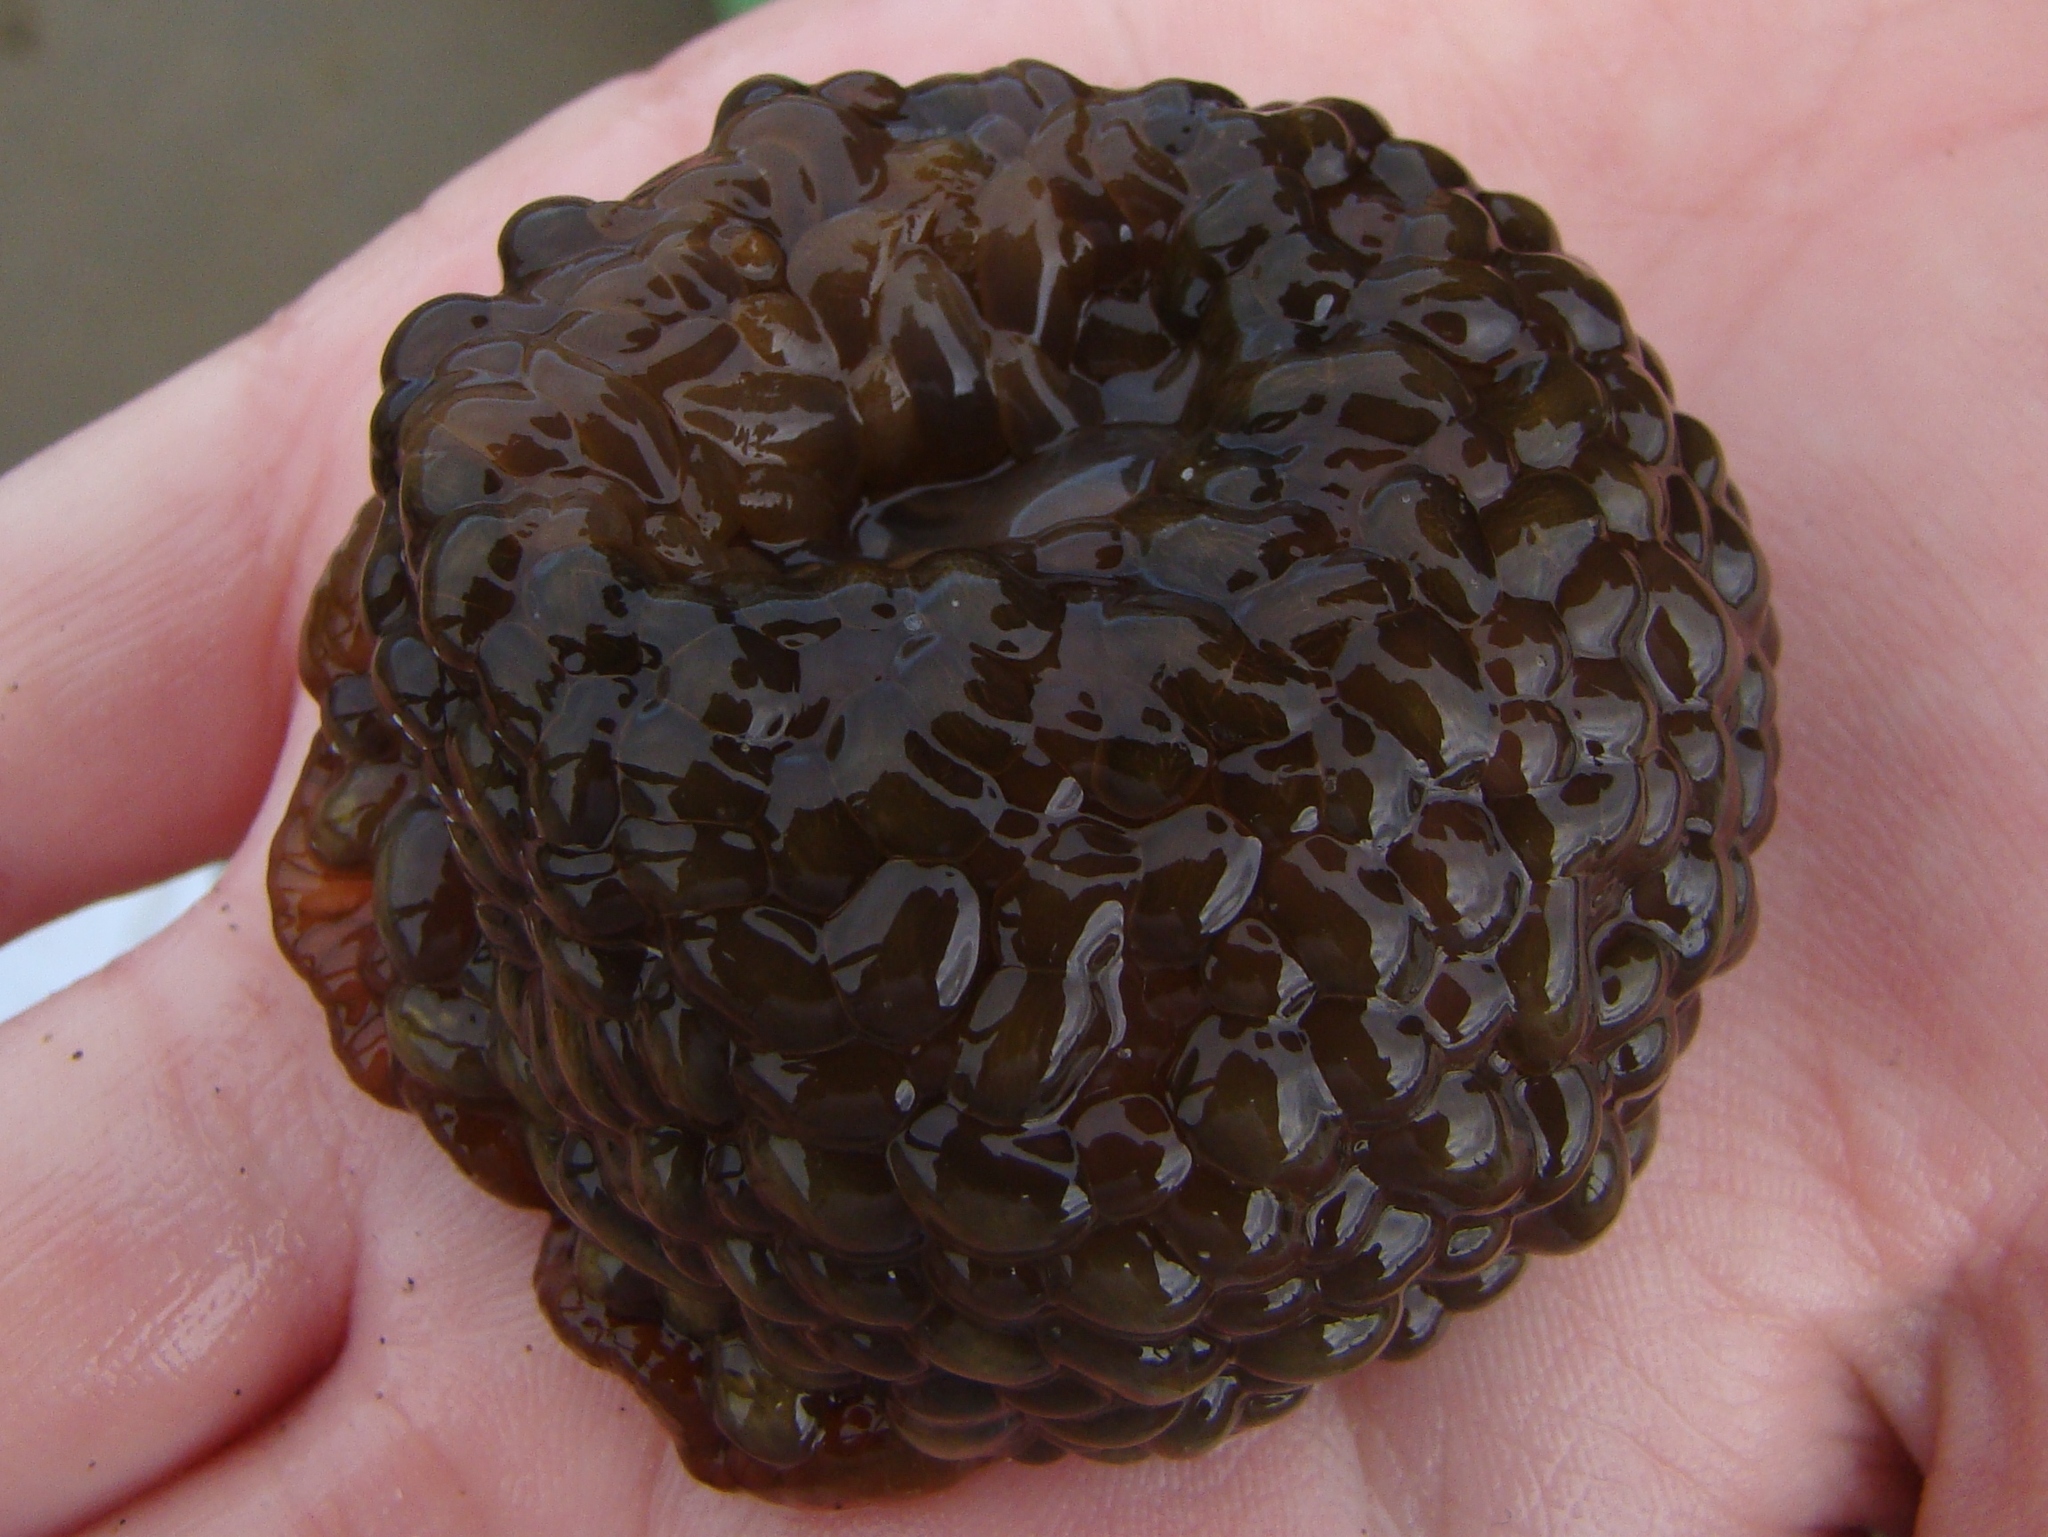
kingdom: Animalia
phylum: Cnidaria
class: Anthozoa
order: Actiniaria
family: Actiniidae
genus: Phlyctenactis
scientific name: Phlyctenactis tuberculosa
